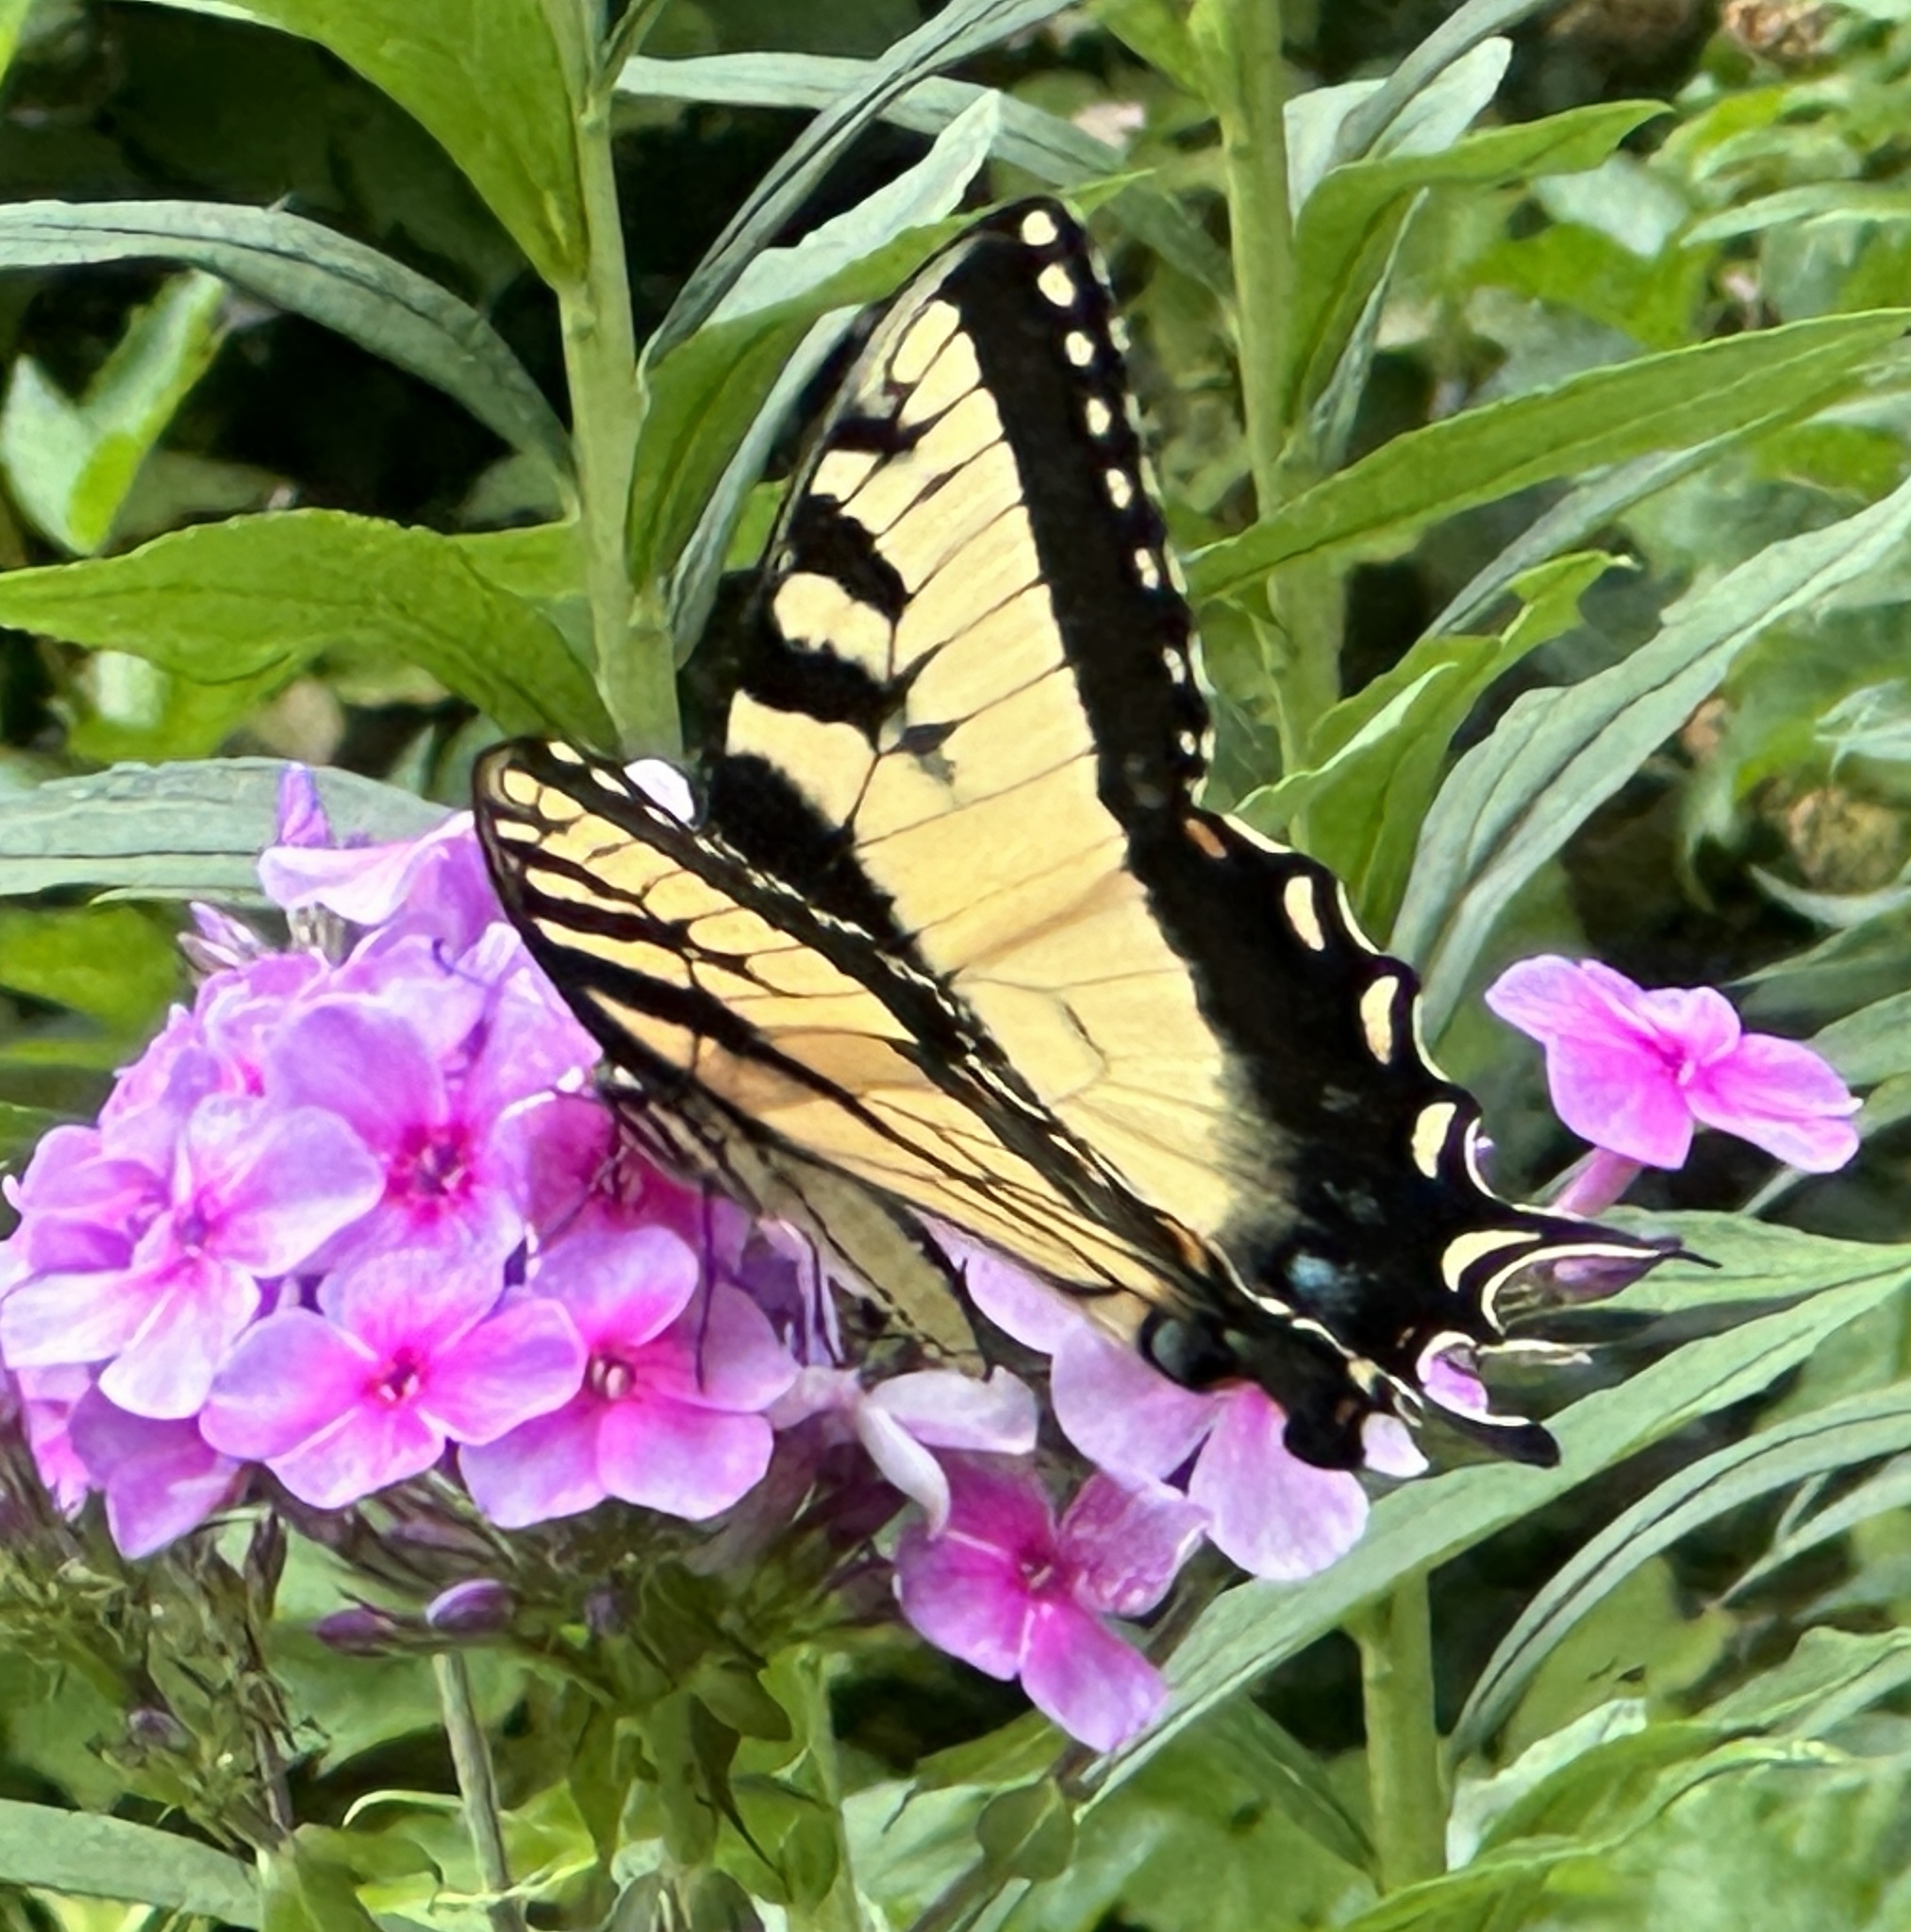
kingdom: Animalia
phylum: Arthropoda
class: Insecta
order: Lepidoptera
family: Papilionidae
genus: Papilio
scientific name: Papilio glaucus
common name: Tiger swallowtail
